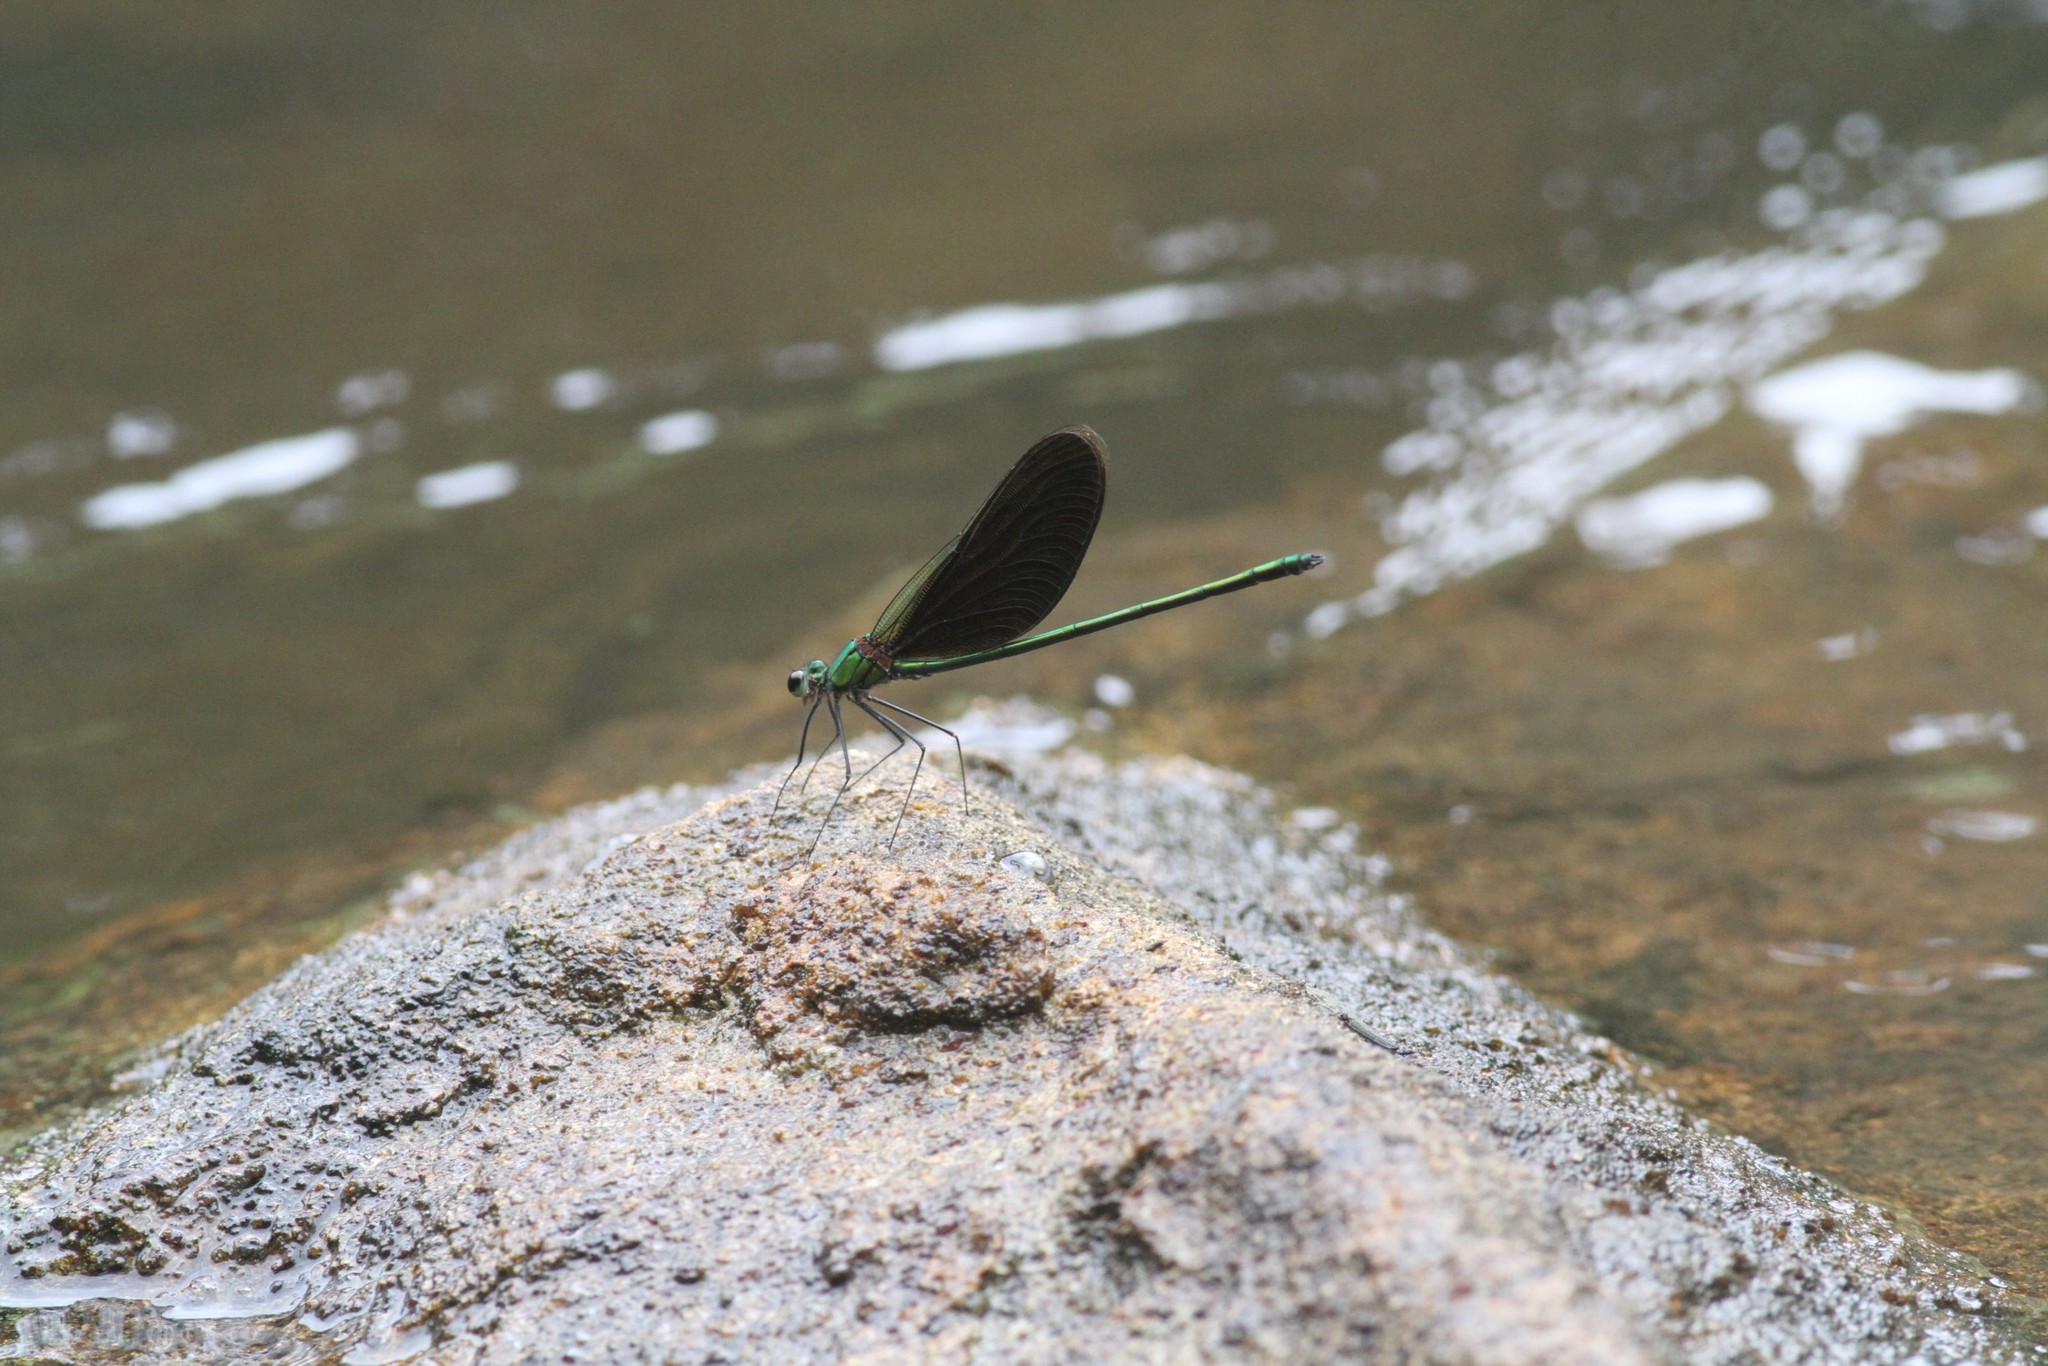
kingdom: Animalia
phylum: Arthropoda
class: Insecta
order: Odonata
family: Calopterygidae
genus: Neurobasis
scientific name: Neurobasis chinensis
